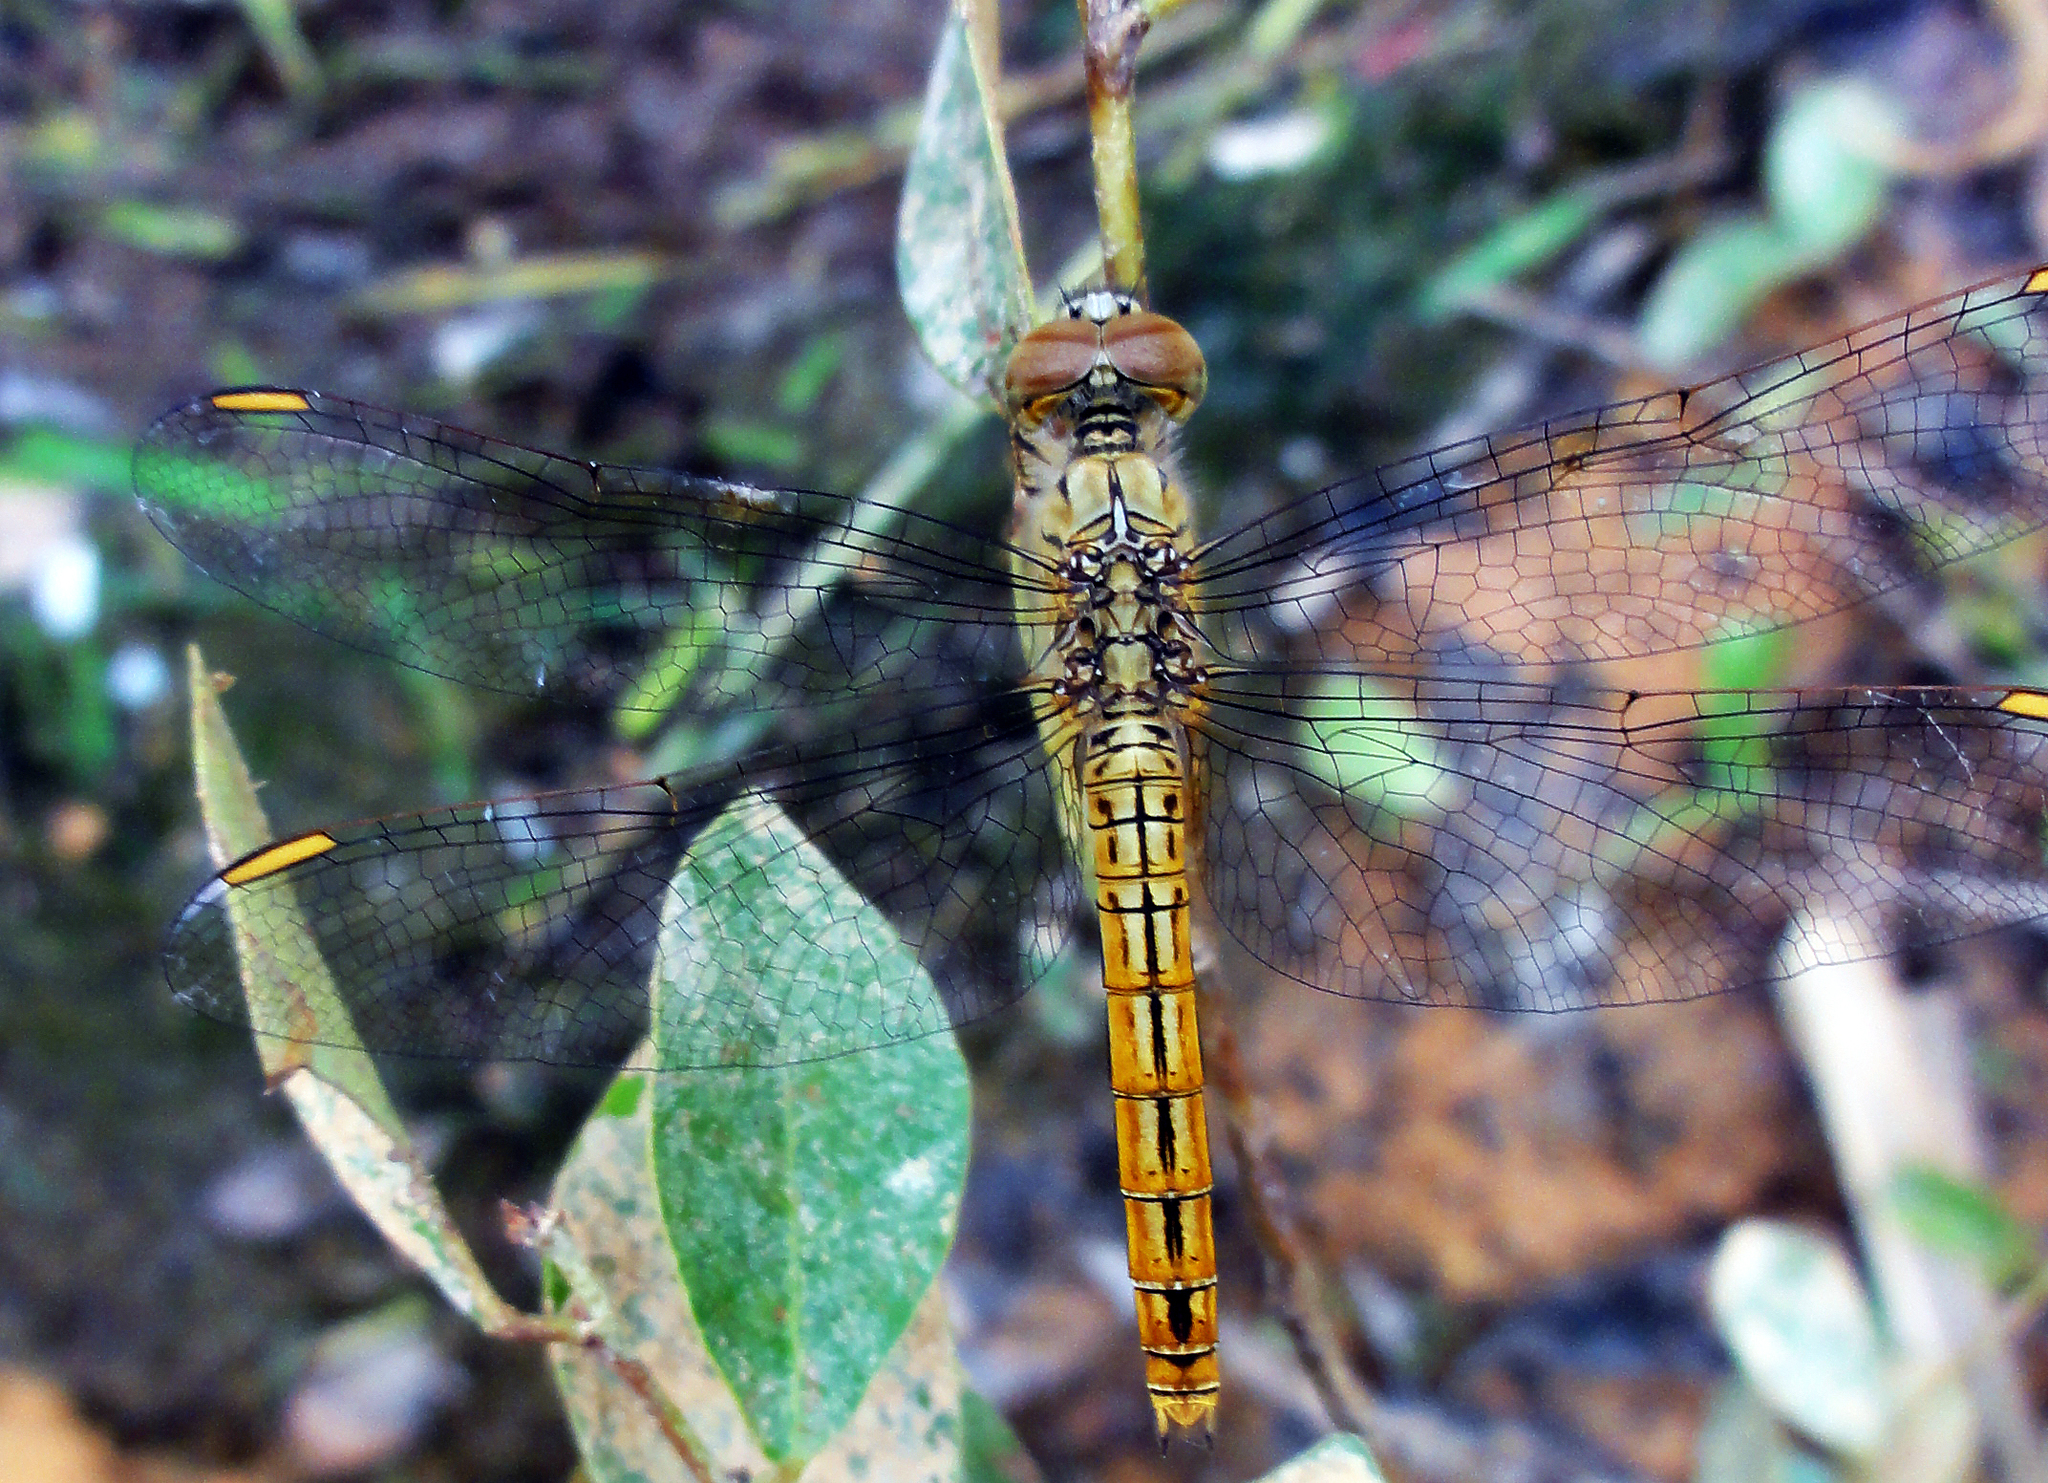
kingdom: Animalia
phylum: Arthropoda
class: Insecta
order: Odonata
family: Libellulidae
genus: Brachythemis
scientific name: Brachythemis contaminata
